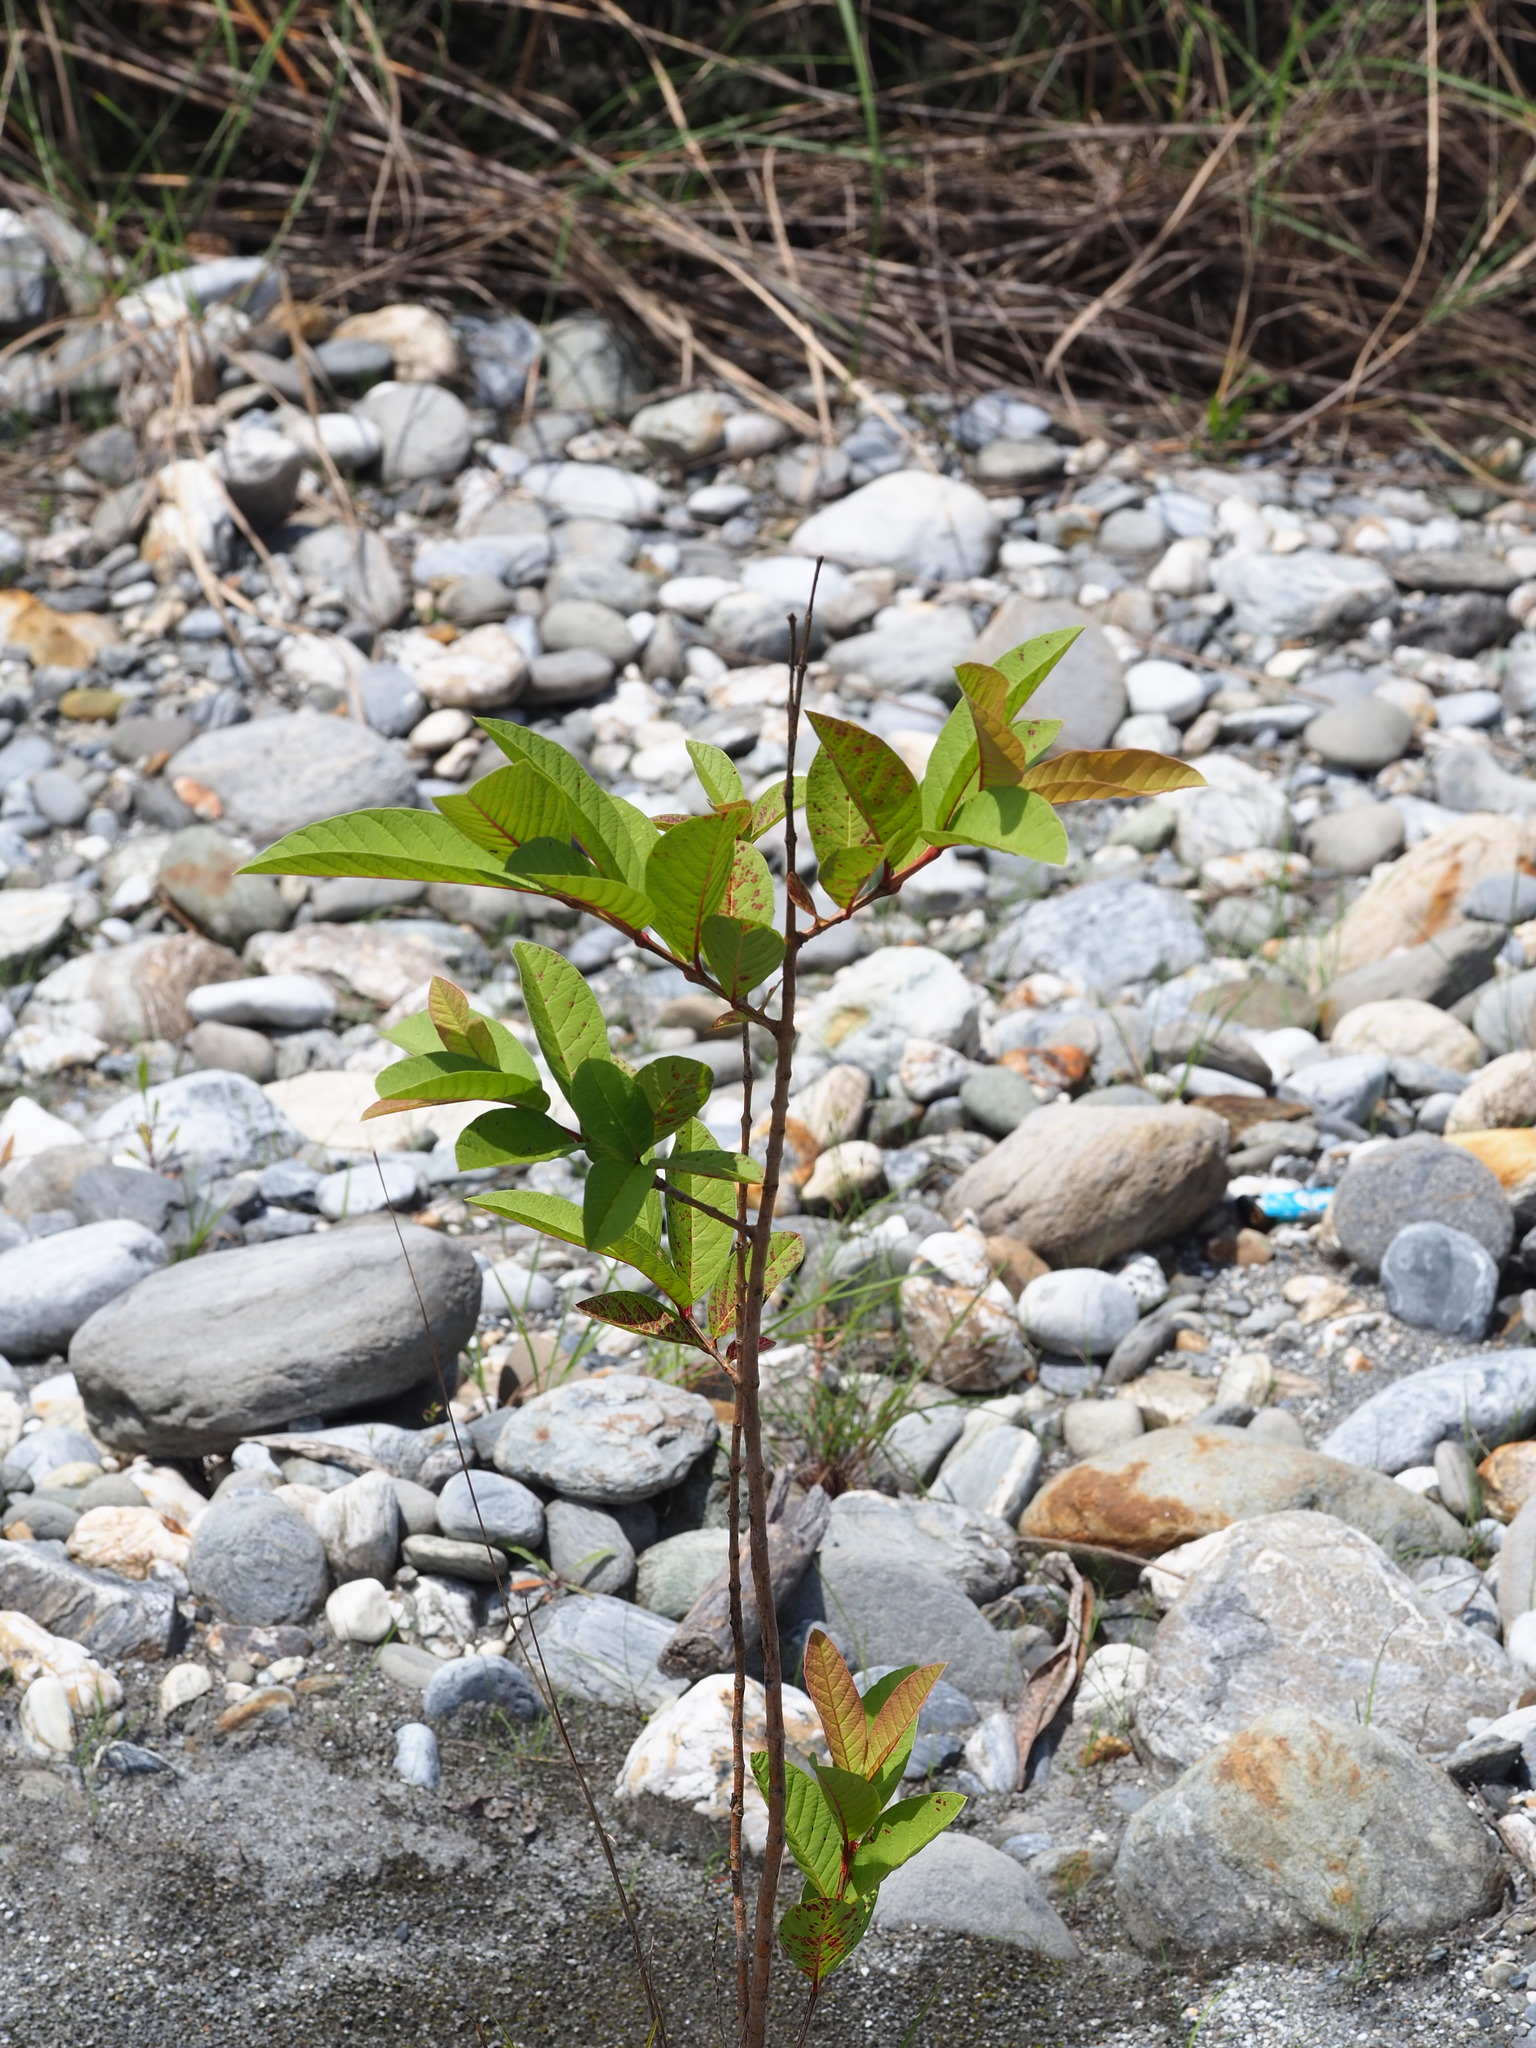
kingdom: Plantae
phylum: Tracheophyta
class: Magnoliopsida
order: Myrtales
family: Myrtaceae
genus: Psidium
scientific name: Psidium guajava
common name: Guava
